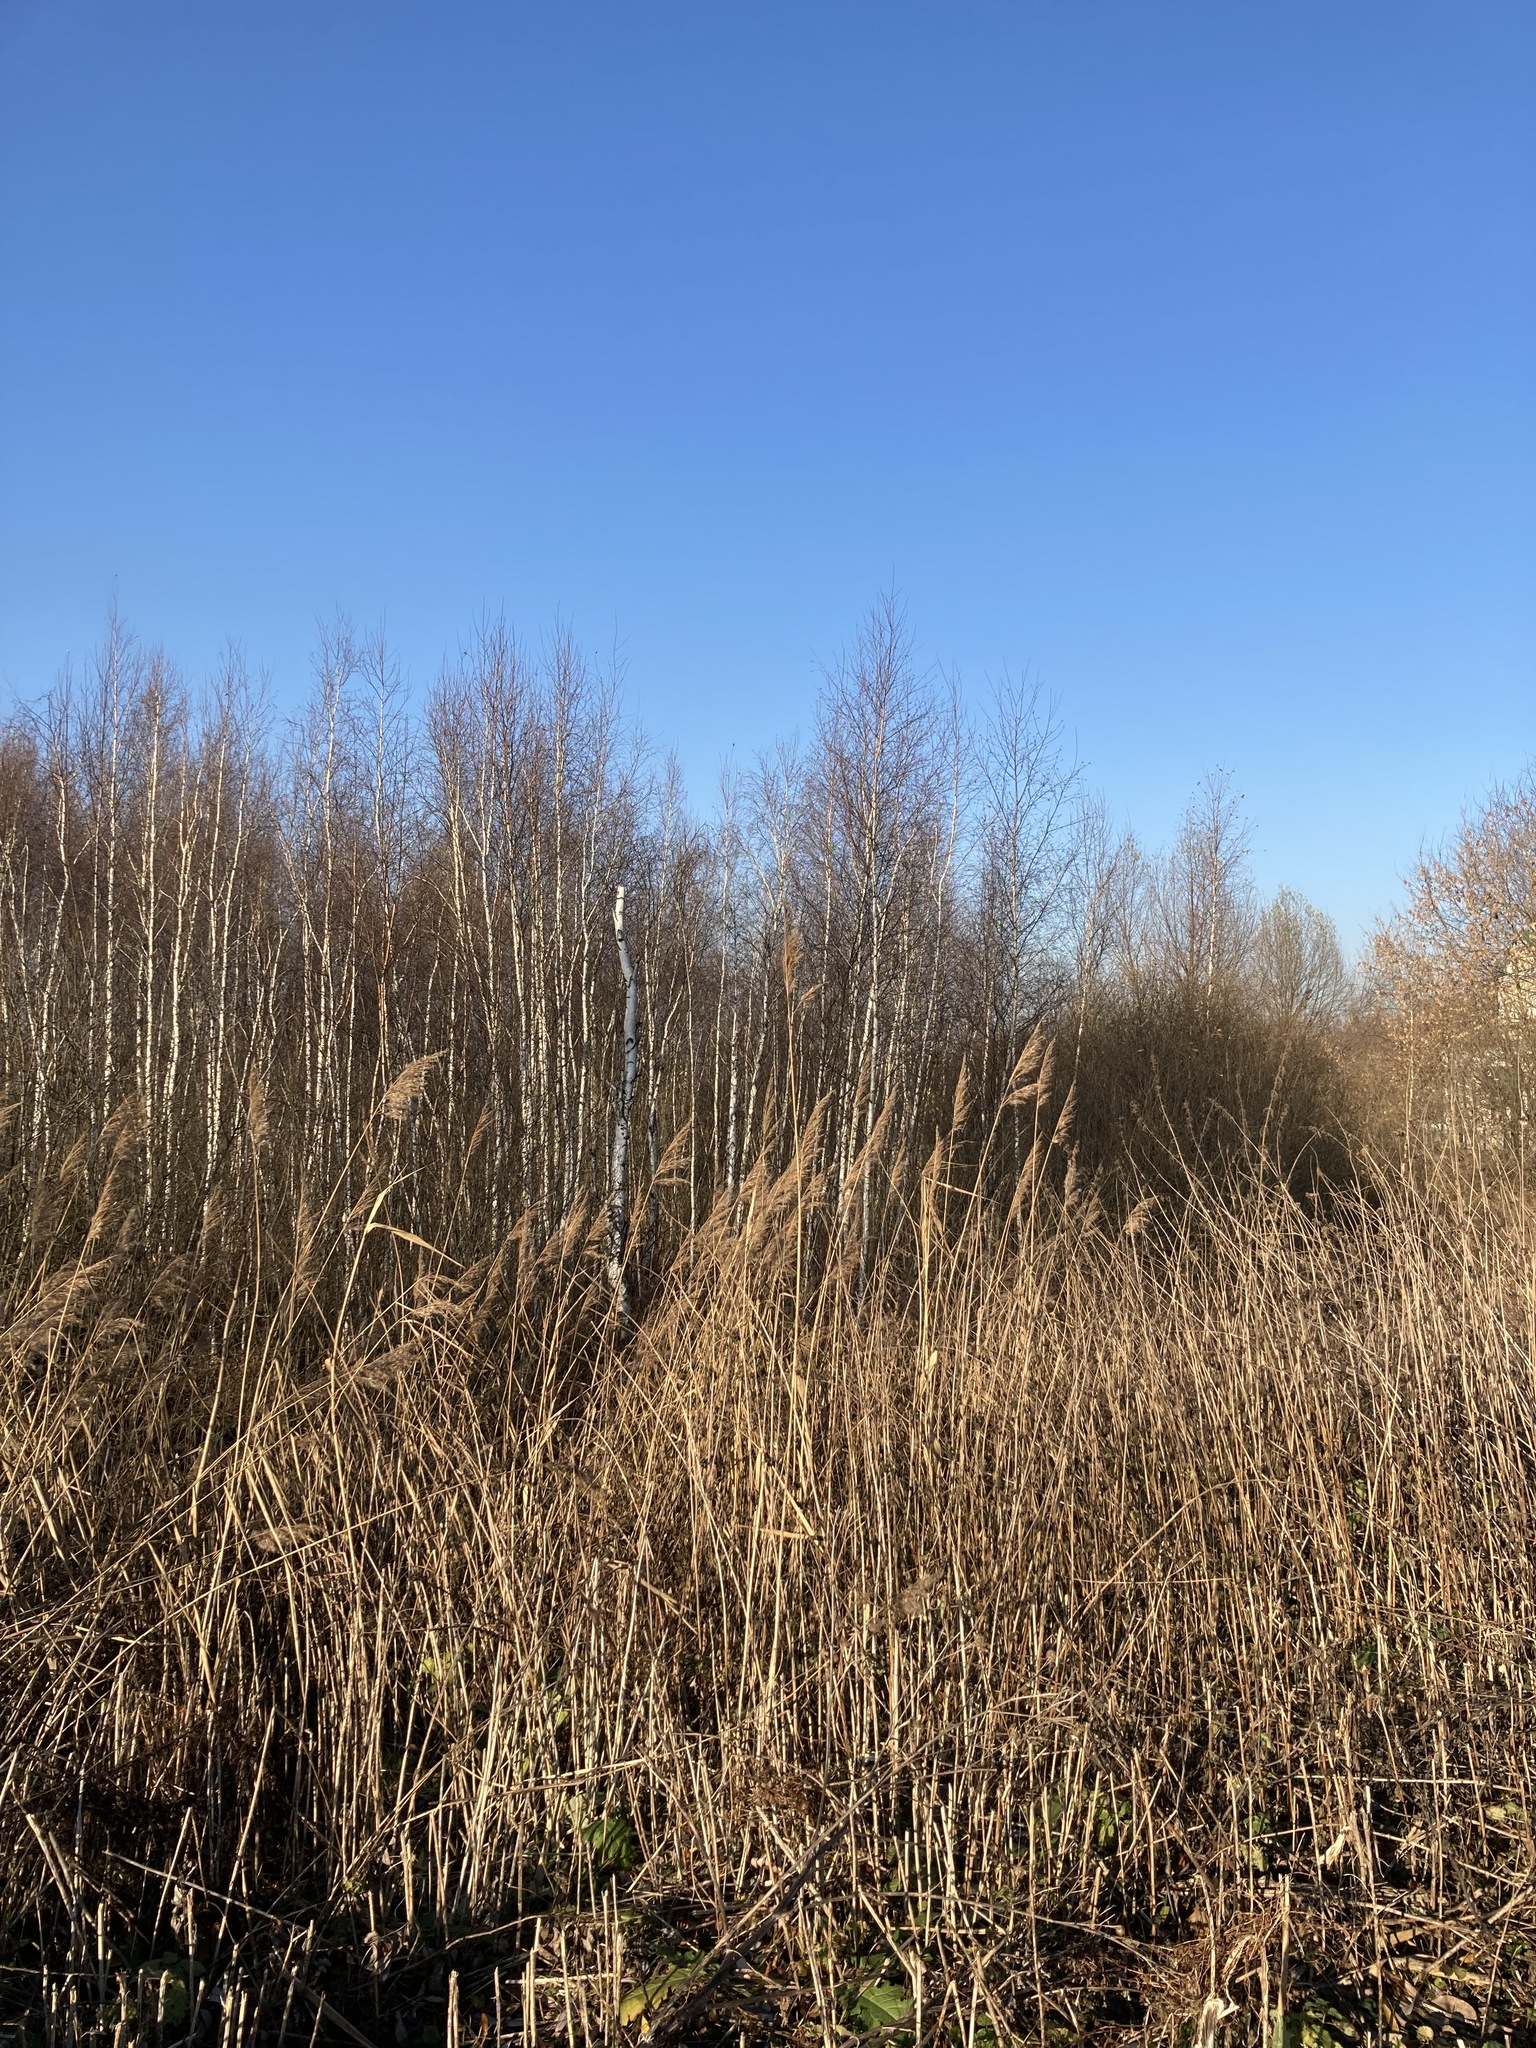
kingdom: Plantae
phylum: Tracheophyta
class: Liliopsida
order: Poales
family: Poaceae
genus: Phragmites
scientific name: Phragmites australis
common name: Common reed
